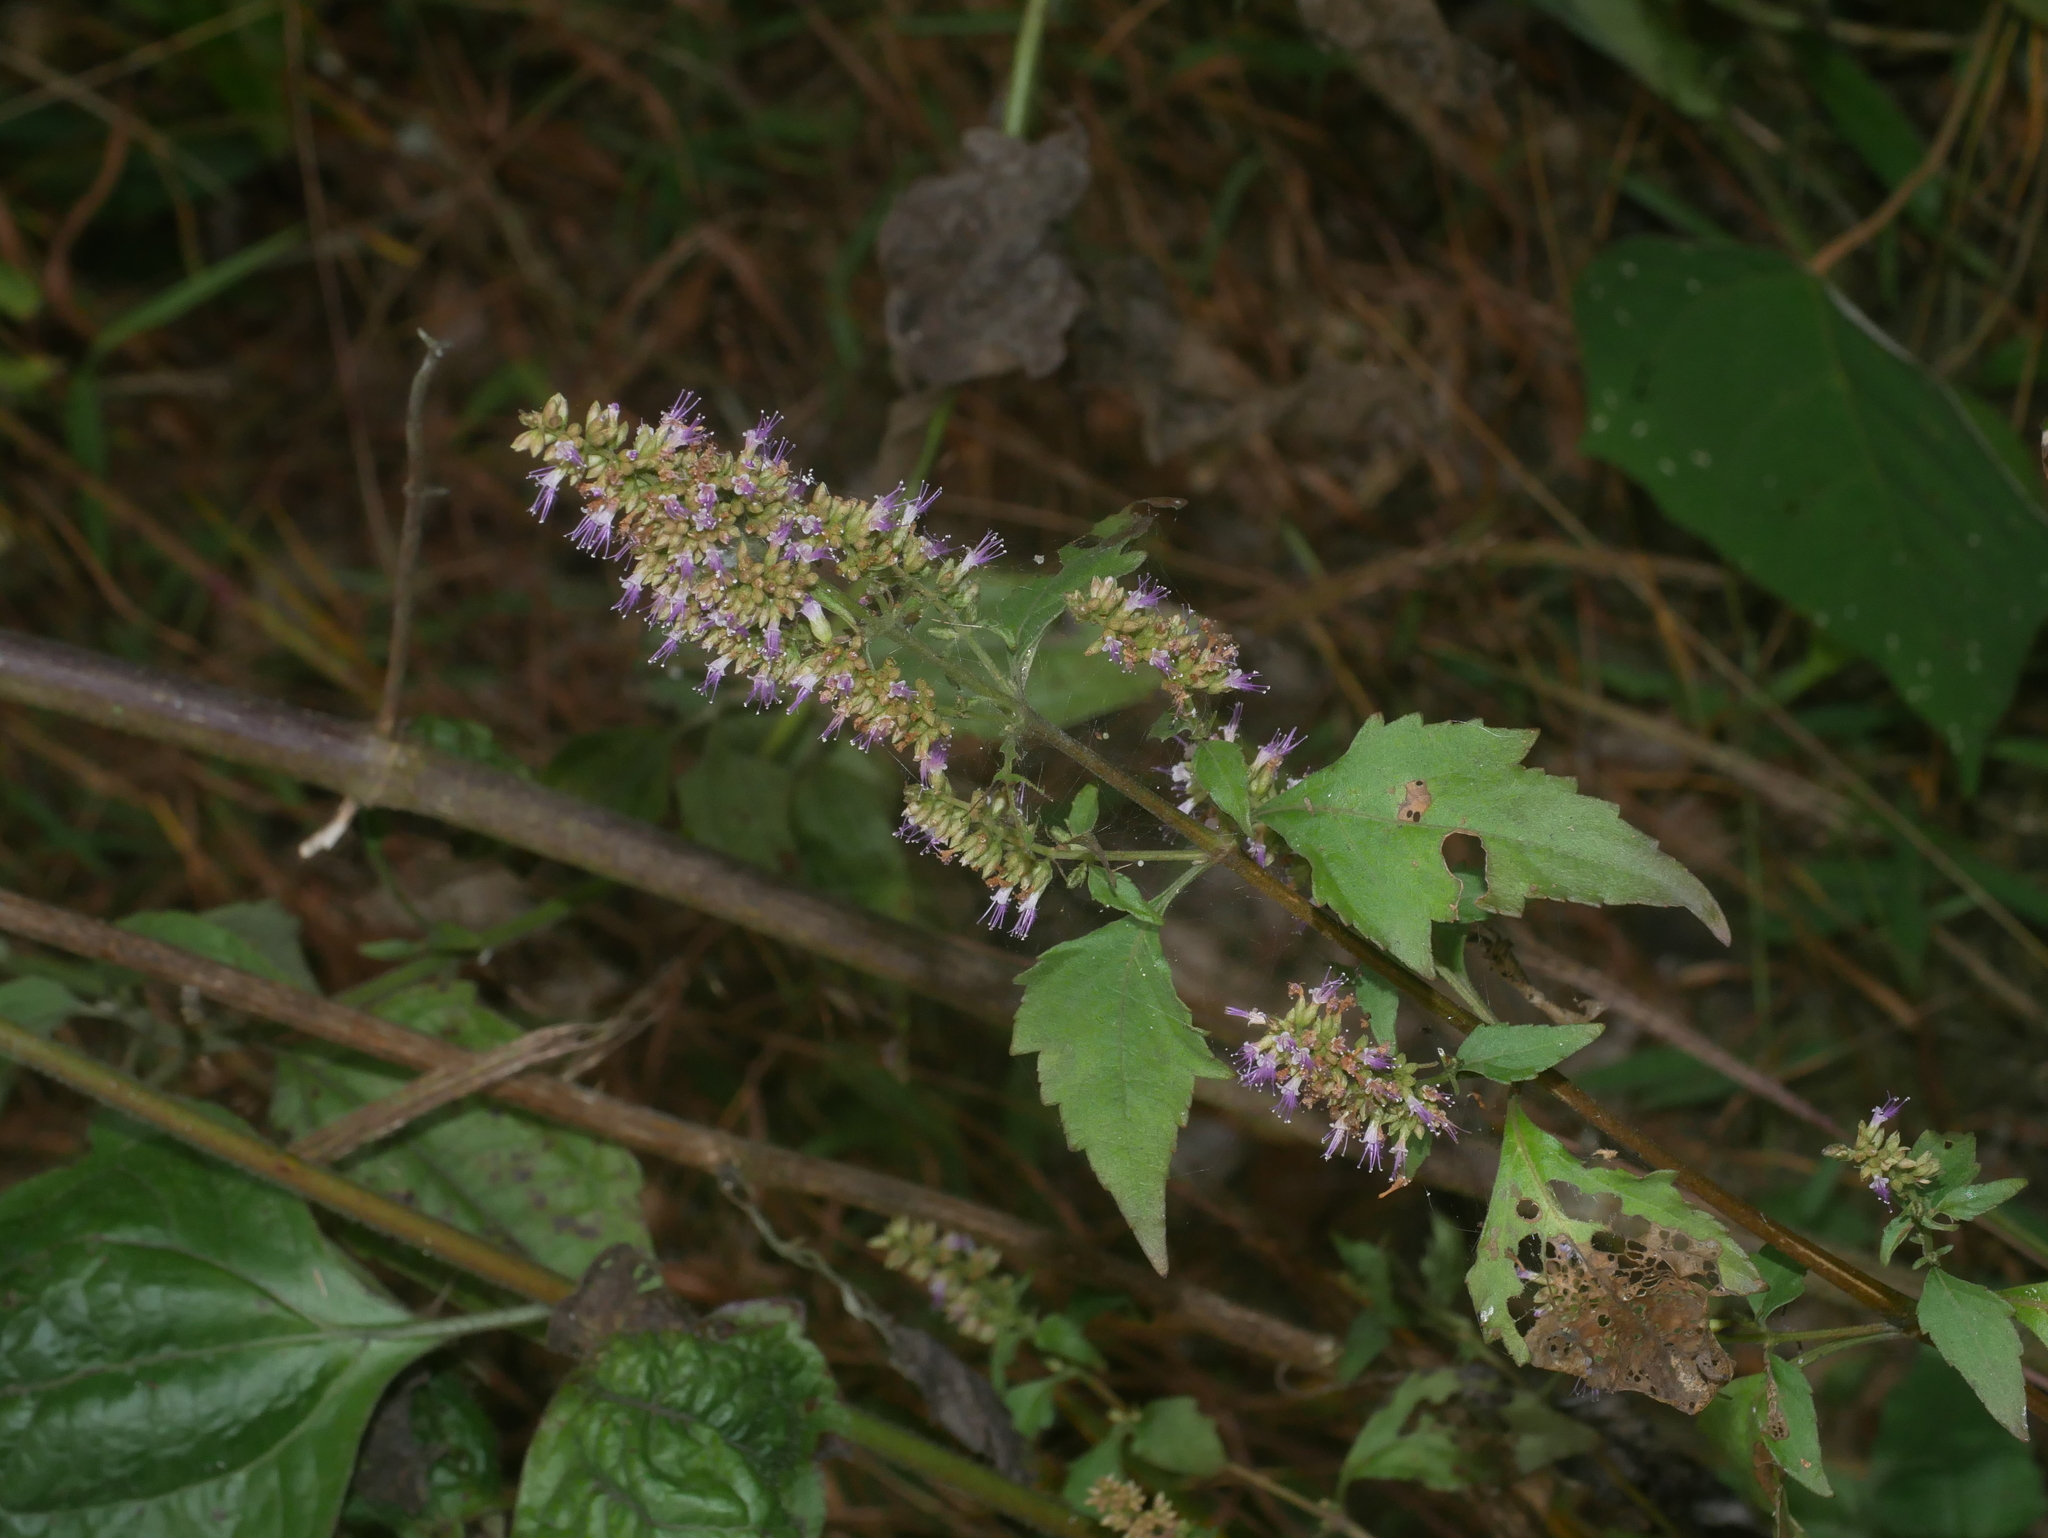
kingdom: Plantae
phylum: Tracheophyta
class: Magnoliopsida
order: Lamiales
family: Lamiaceae
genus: Pogostemon
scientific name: Pogostemon formosanus
